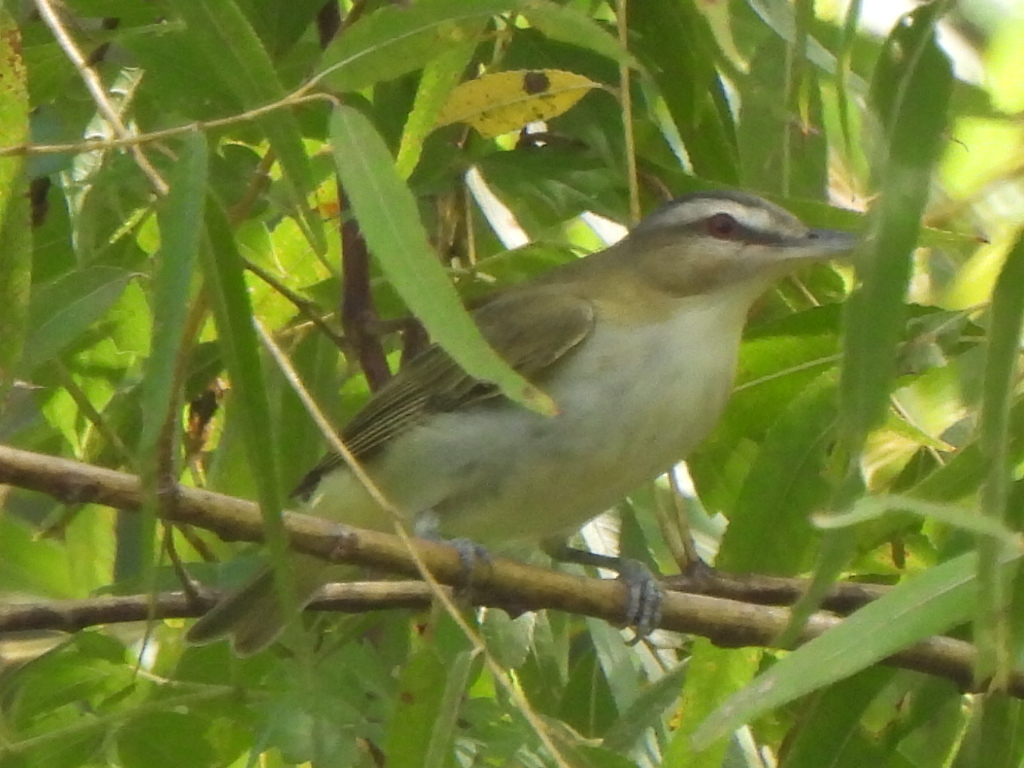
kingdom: Animalia
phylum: Chordata
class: Aves
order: Passeriformes
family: Vireonidae
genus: Vireo
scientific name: Vireo olivaceus
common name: Red-eyed vireo
